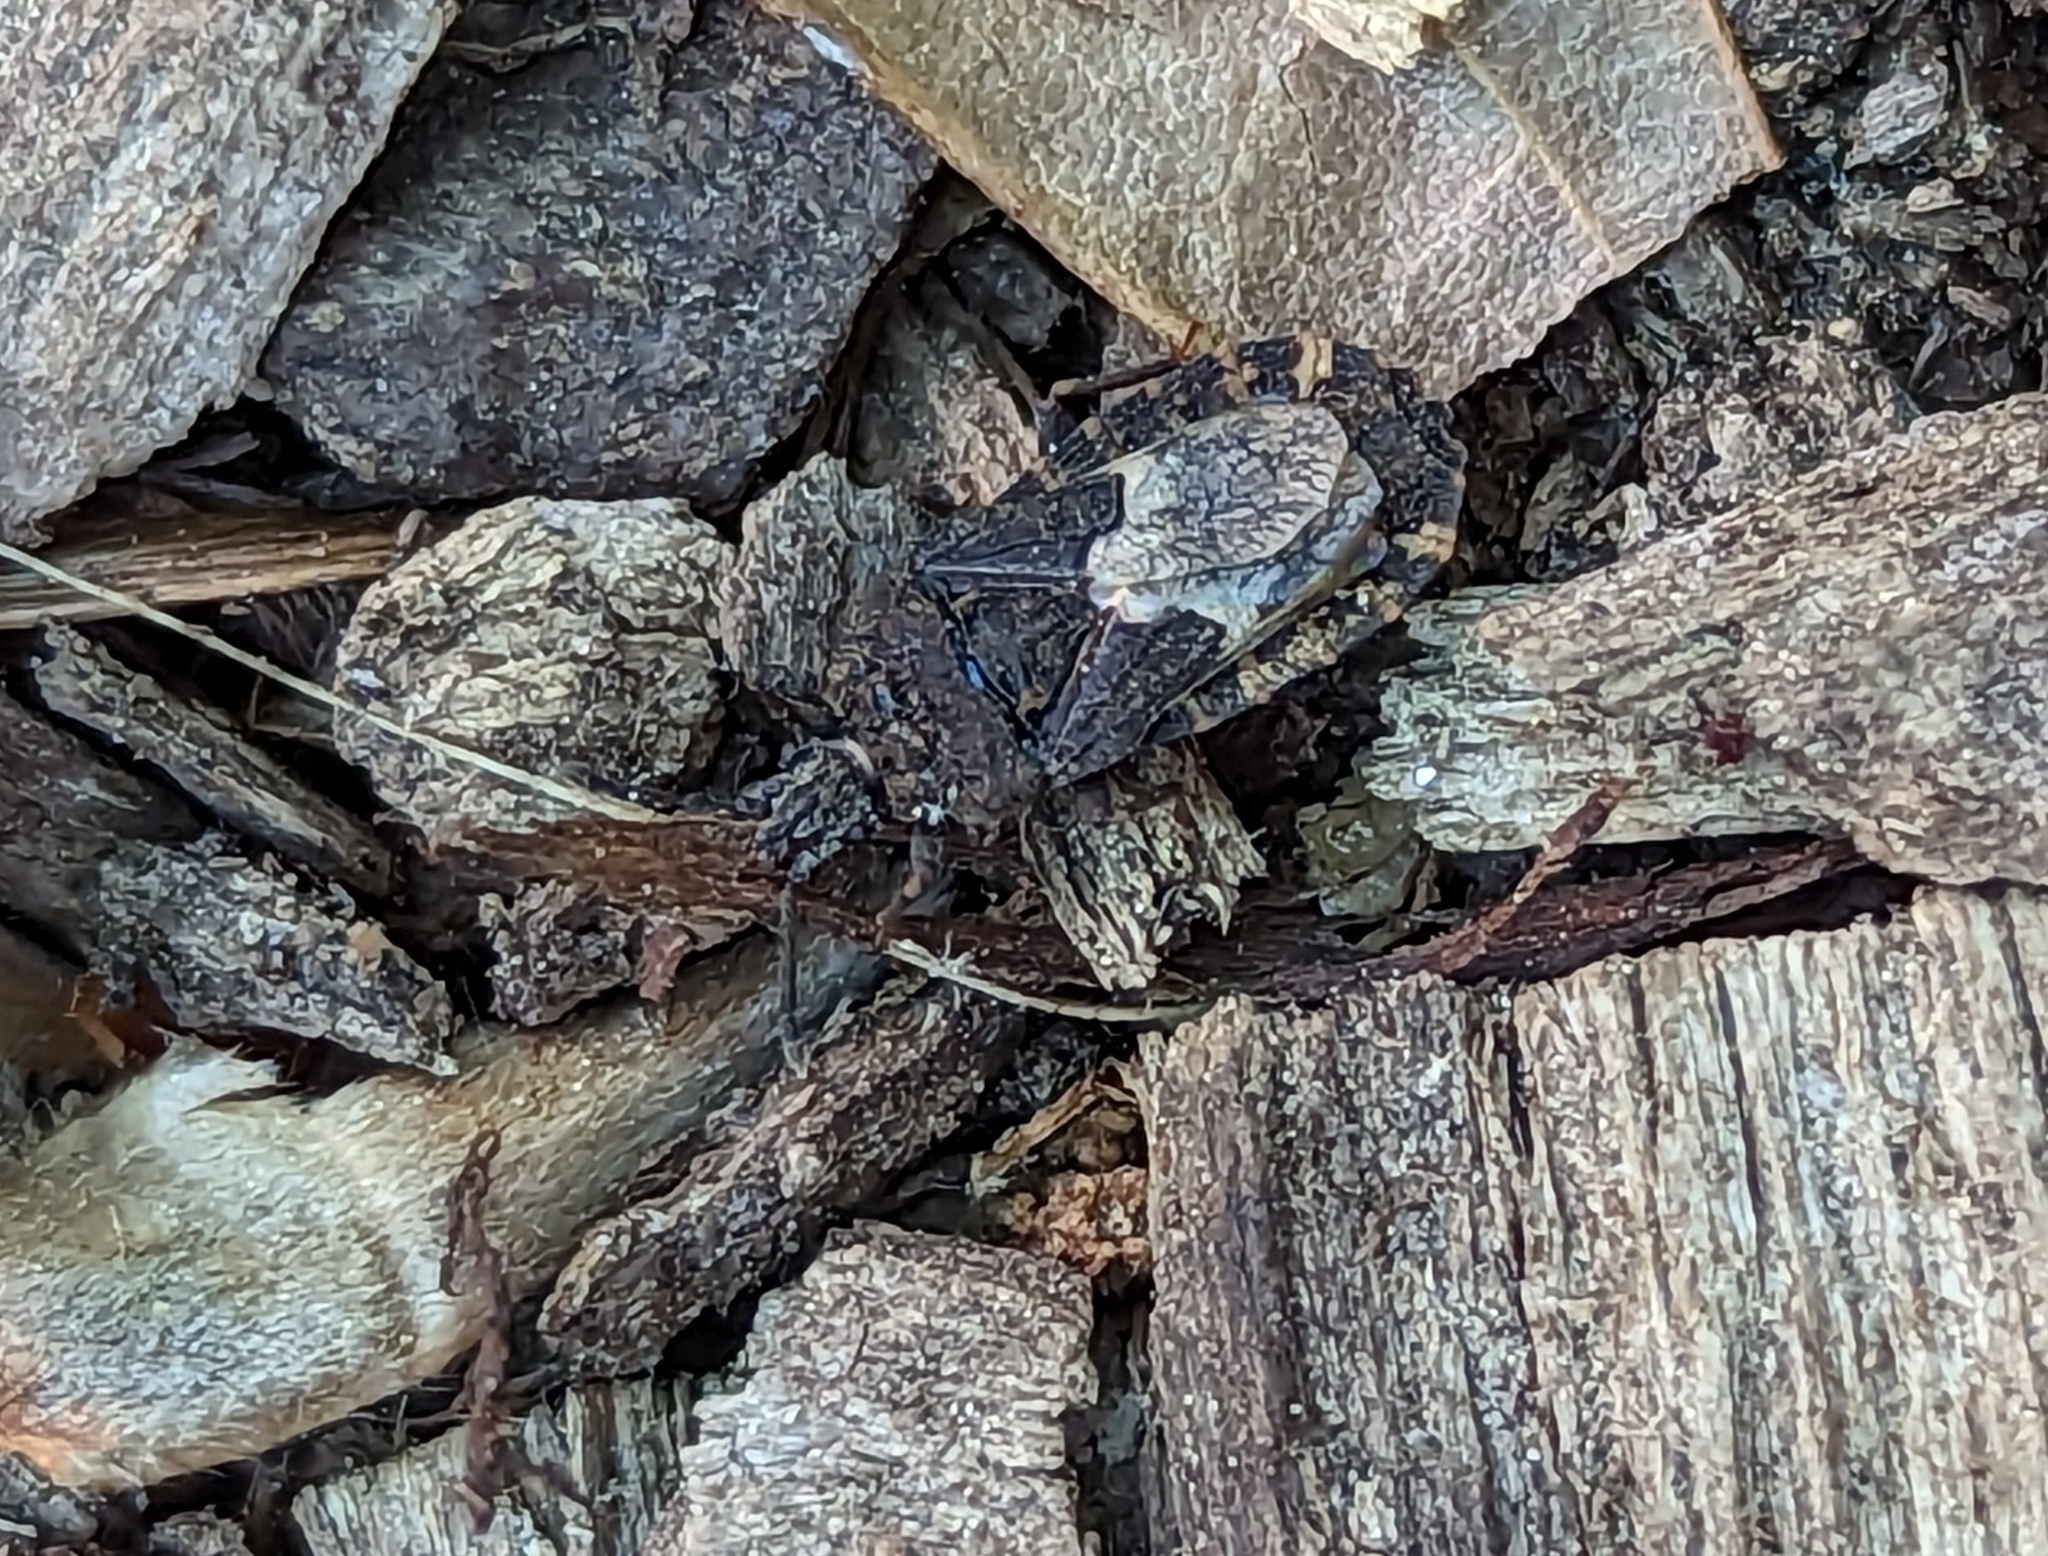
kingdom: Animalia
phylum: Arthropoda
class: Insecta
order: Hemiptera
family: Aradidae
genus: Mezira
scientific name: Mezira
